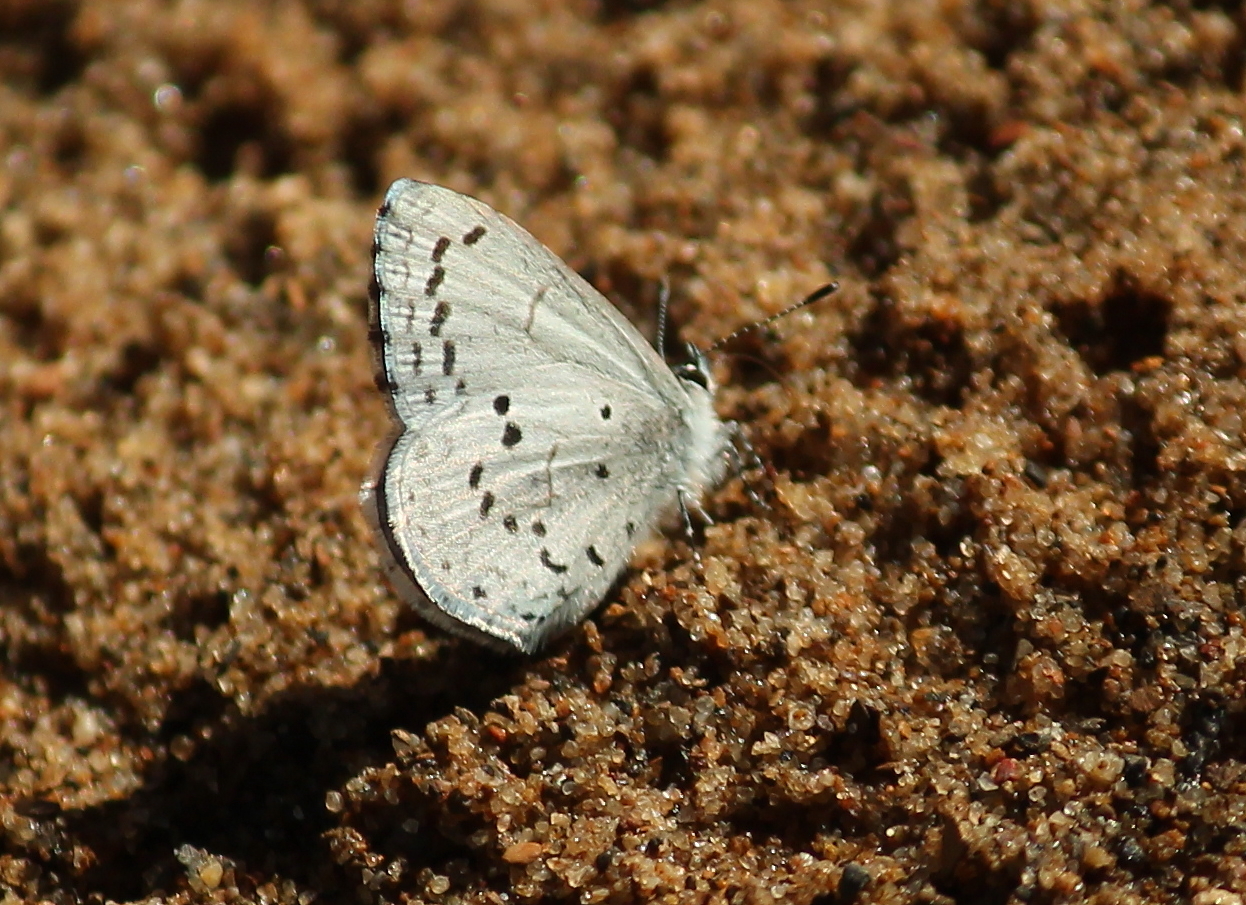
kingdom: Animalia
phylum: Arthropoda
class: Insecta
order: Lepidoptera
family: Lycaenidae
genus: Celastrina
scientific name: Celastrina ladon
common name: Spring azure
